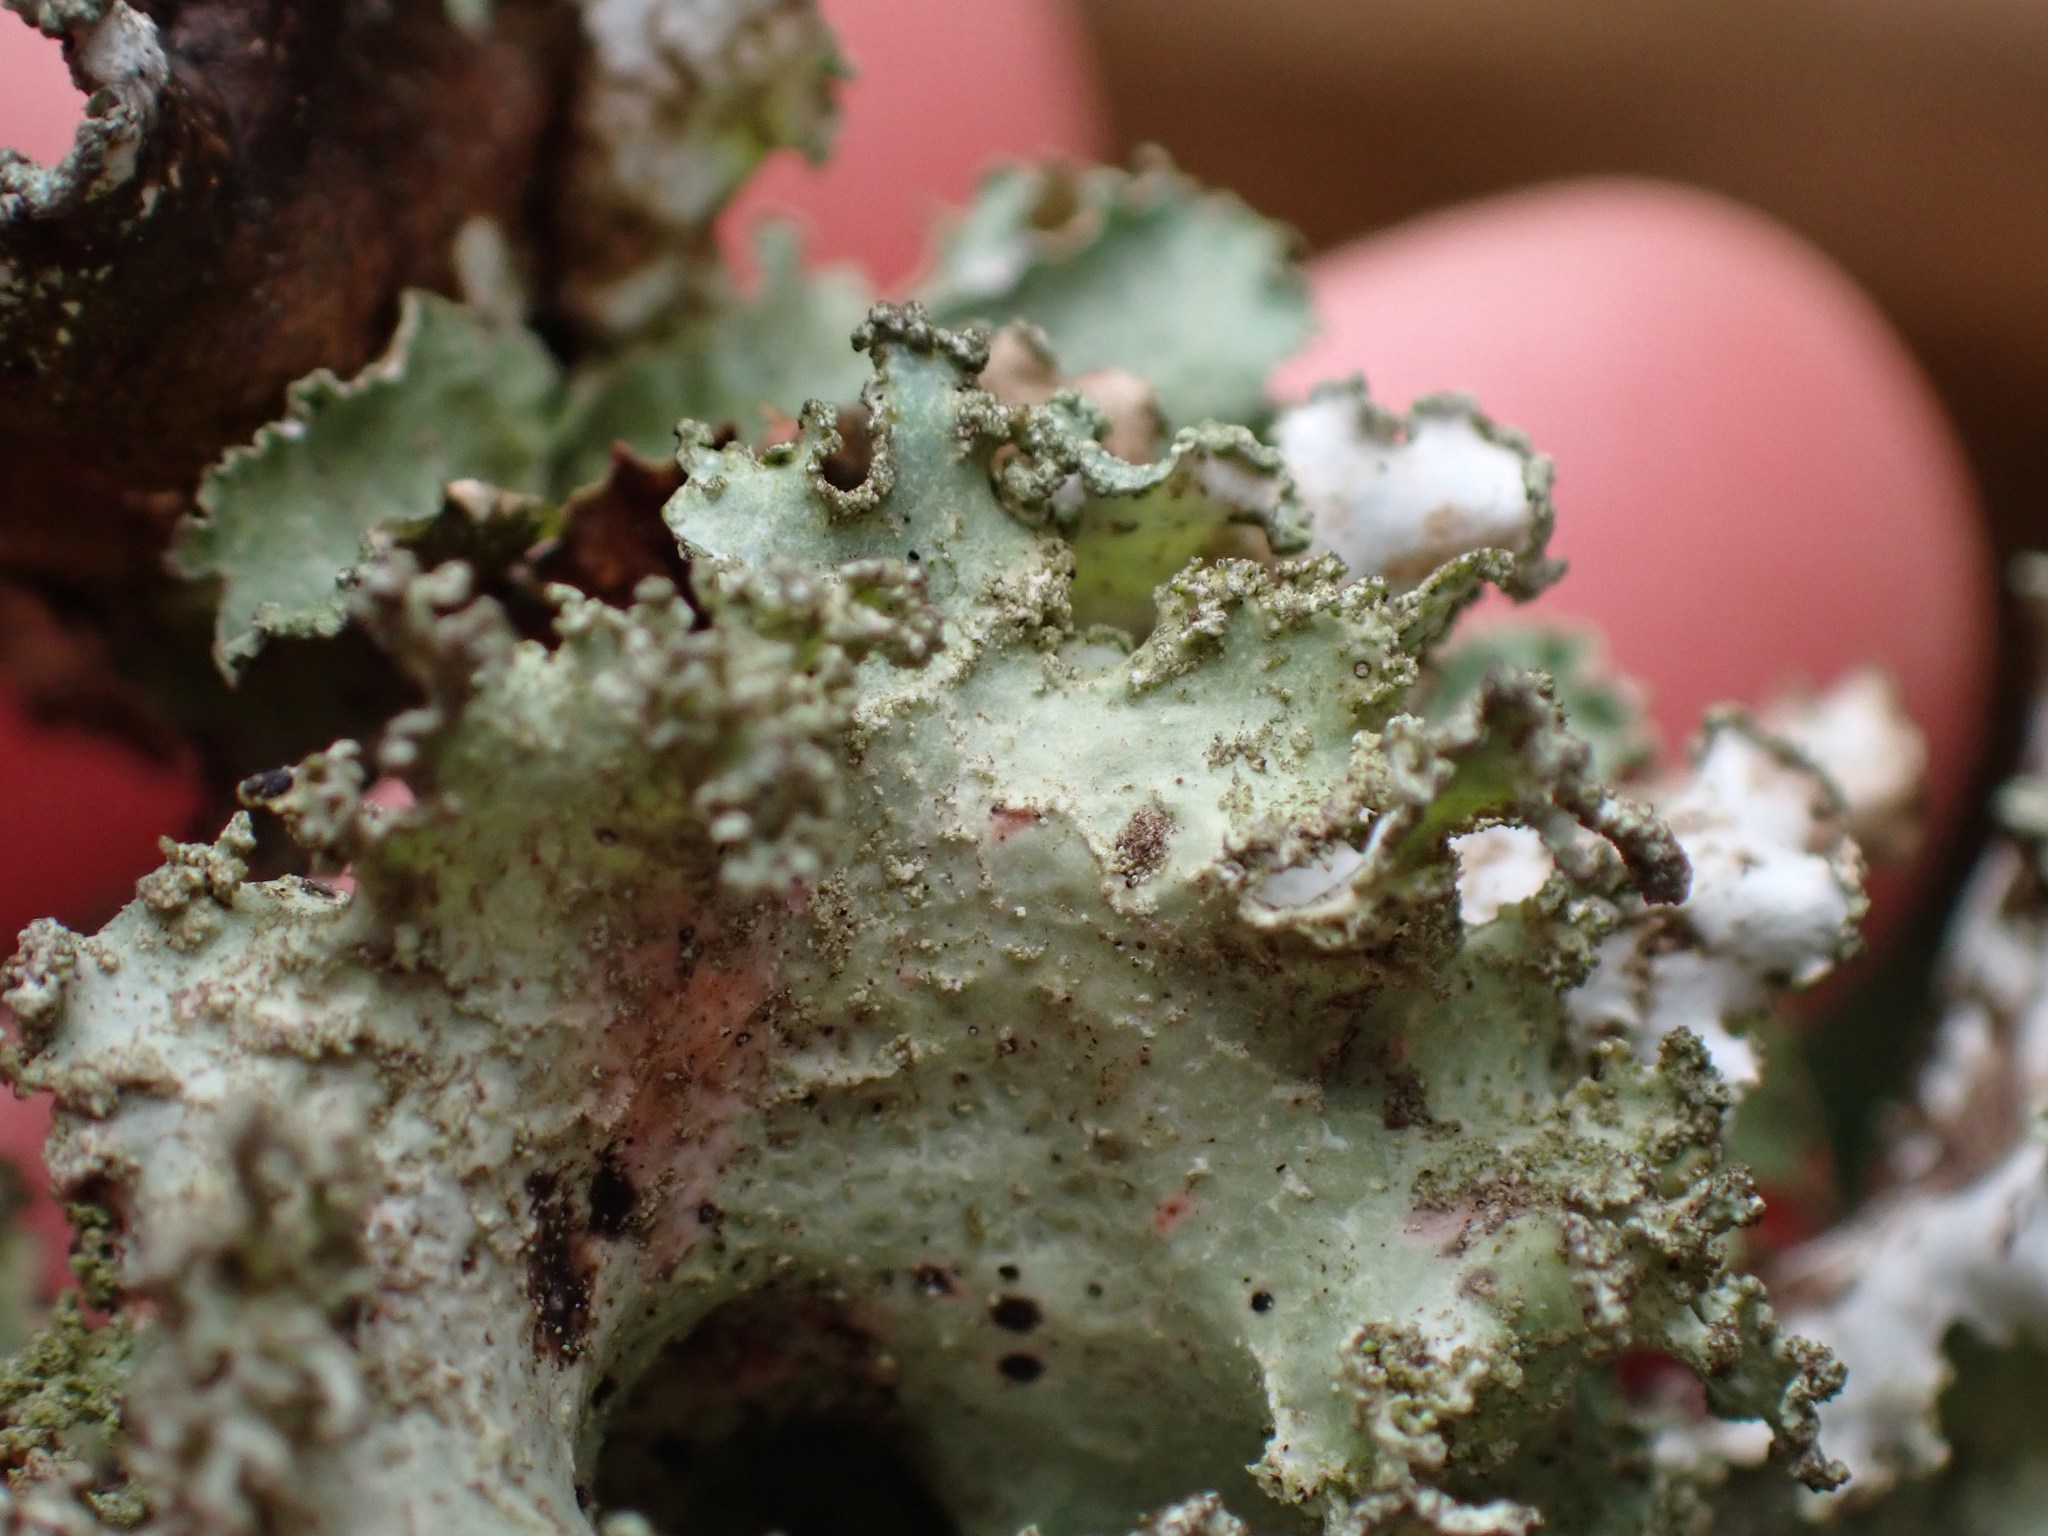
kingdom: Fungi
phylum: Ascomycota
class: Lecanoromycetes
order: Lecanorales
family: Parmeliaceae
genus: Platismatia
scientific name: Platismatia glauca
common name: Varied rag lichen
